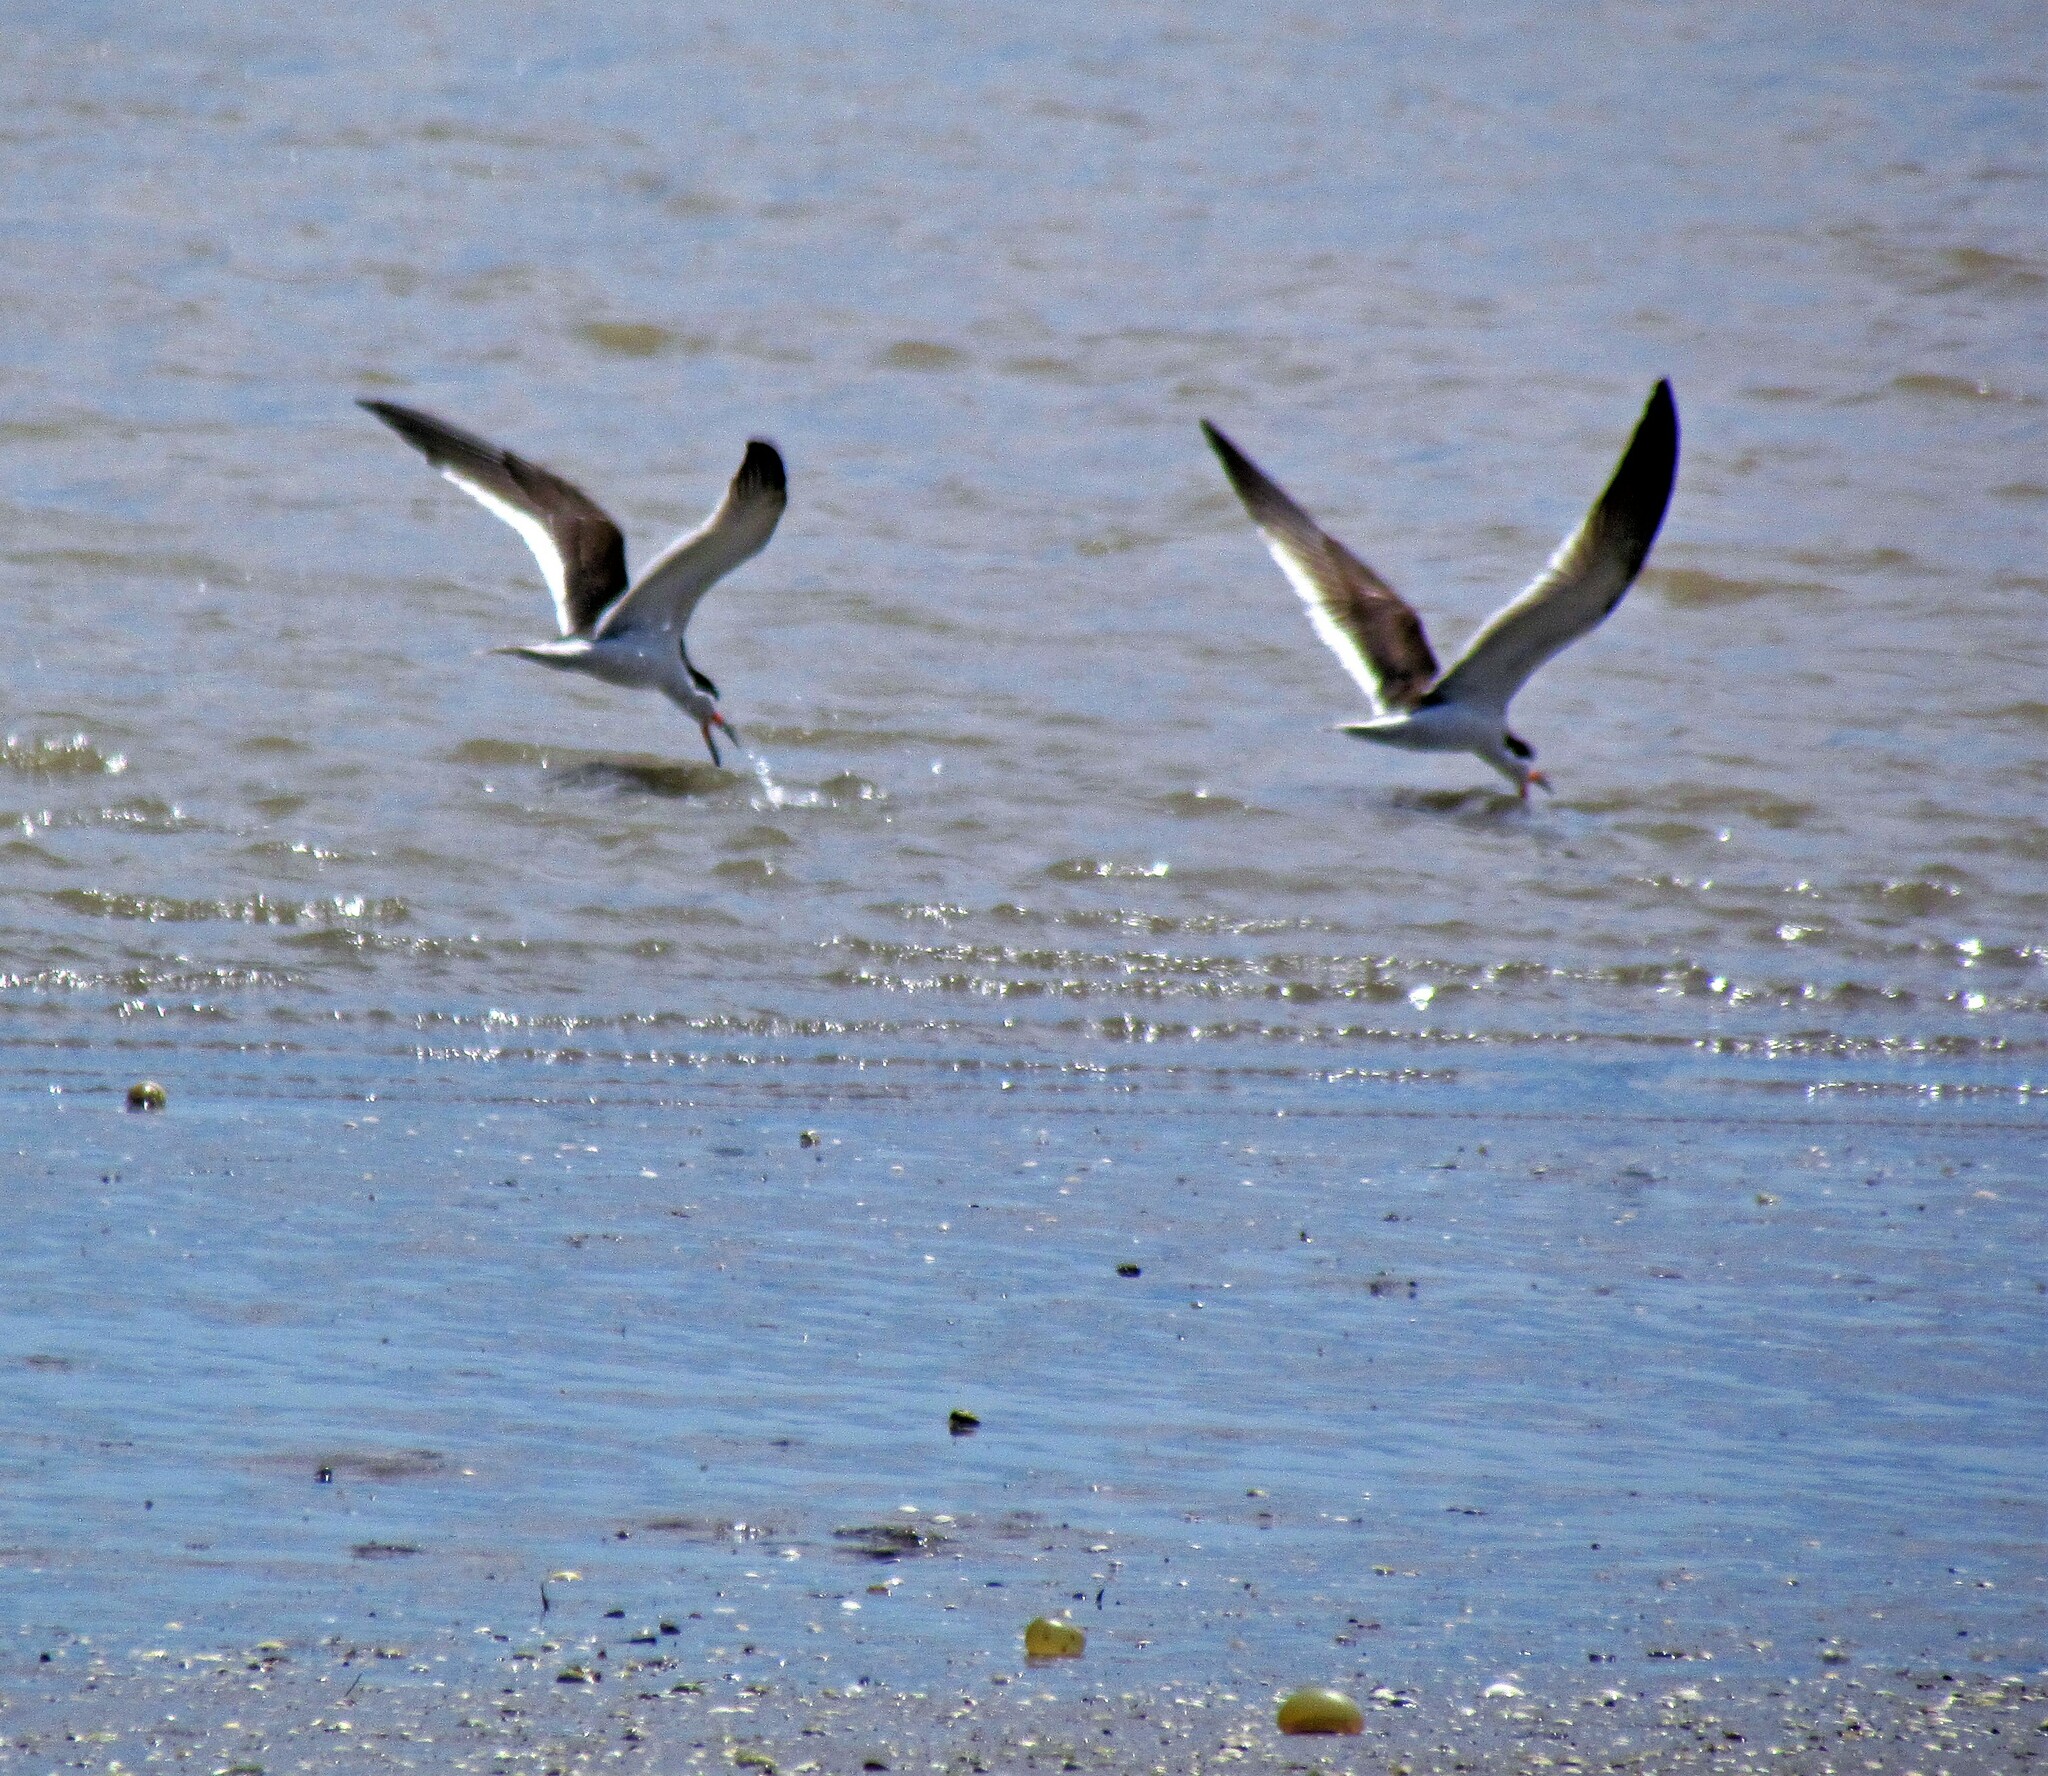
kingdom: Animalia
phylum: Chordata
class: Aves
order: Charadriiformes
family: Laridae
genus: Rynchops
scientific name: Rynchops niger
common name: Black skimmer
